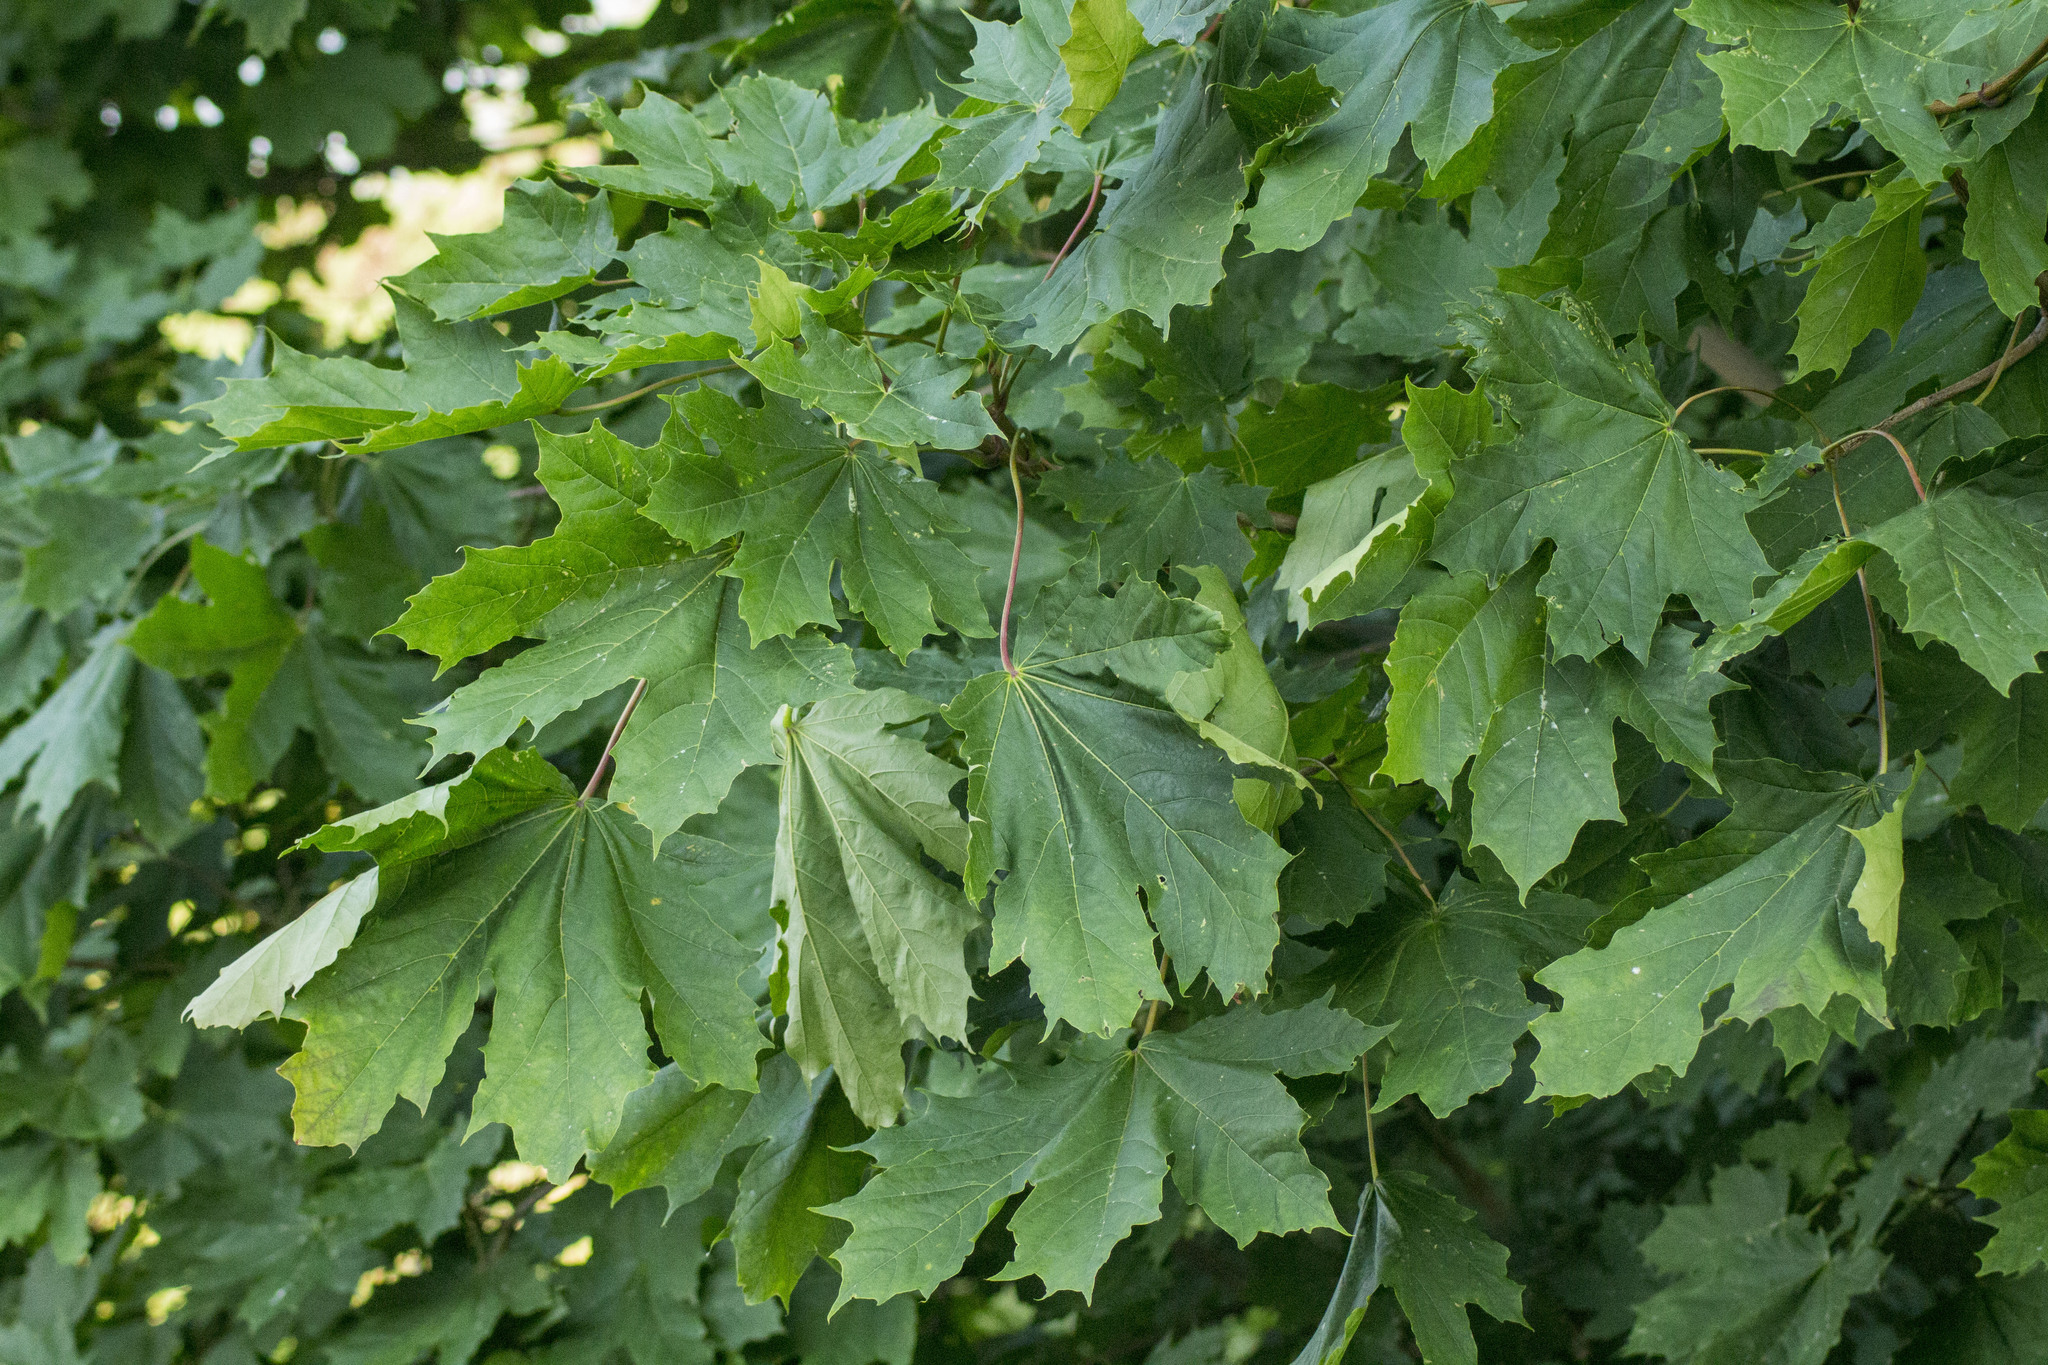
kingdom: Plantae
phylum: Tracheophyta
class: Magnoliopsida
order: Sapindales
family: Sapindaceae
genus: Acer
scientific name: Acer platanoides
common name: Norway maple
